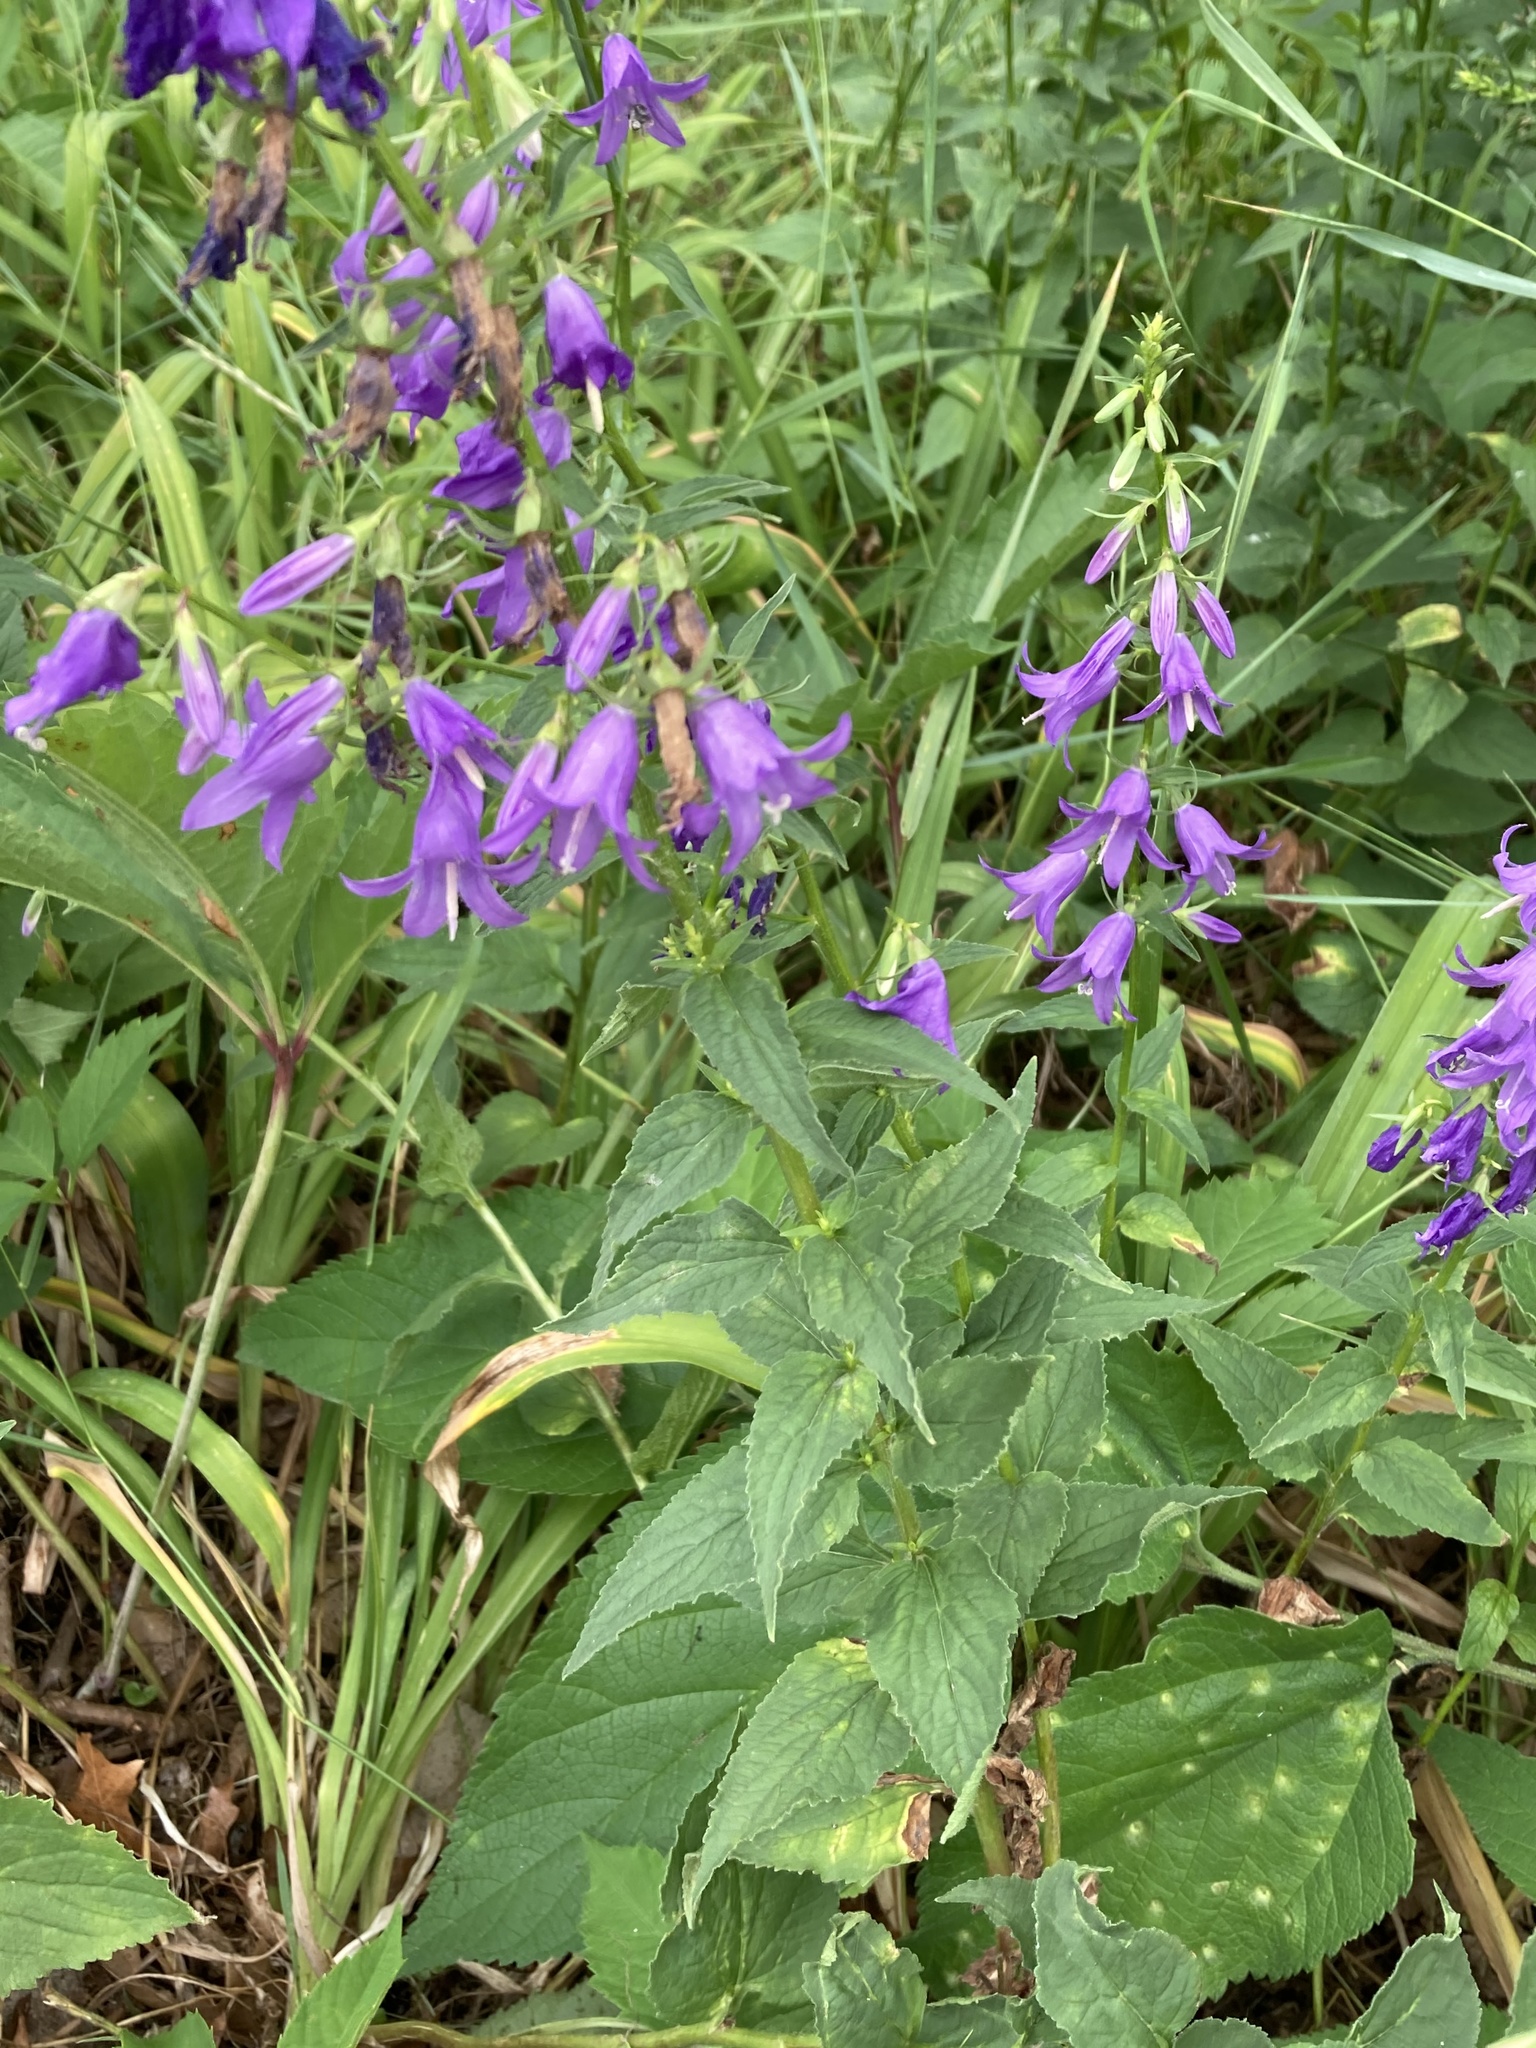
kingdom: Plantae
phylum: Tracheophyta
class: Magnoliopsida
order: Asterales
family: Campanulaceae
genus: Campanula
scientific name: Campanula rapunculoides
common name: Creeping bellflower
